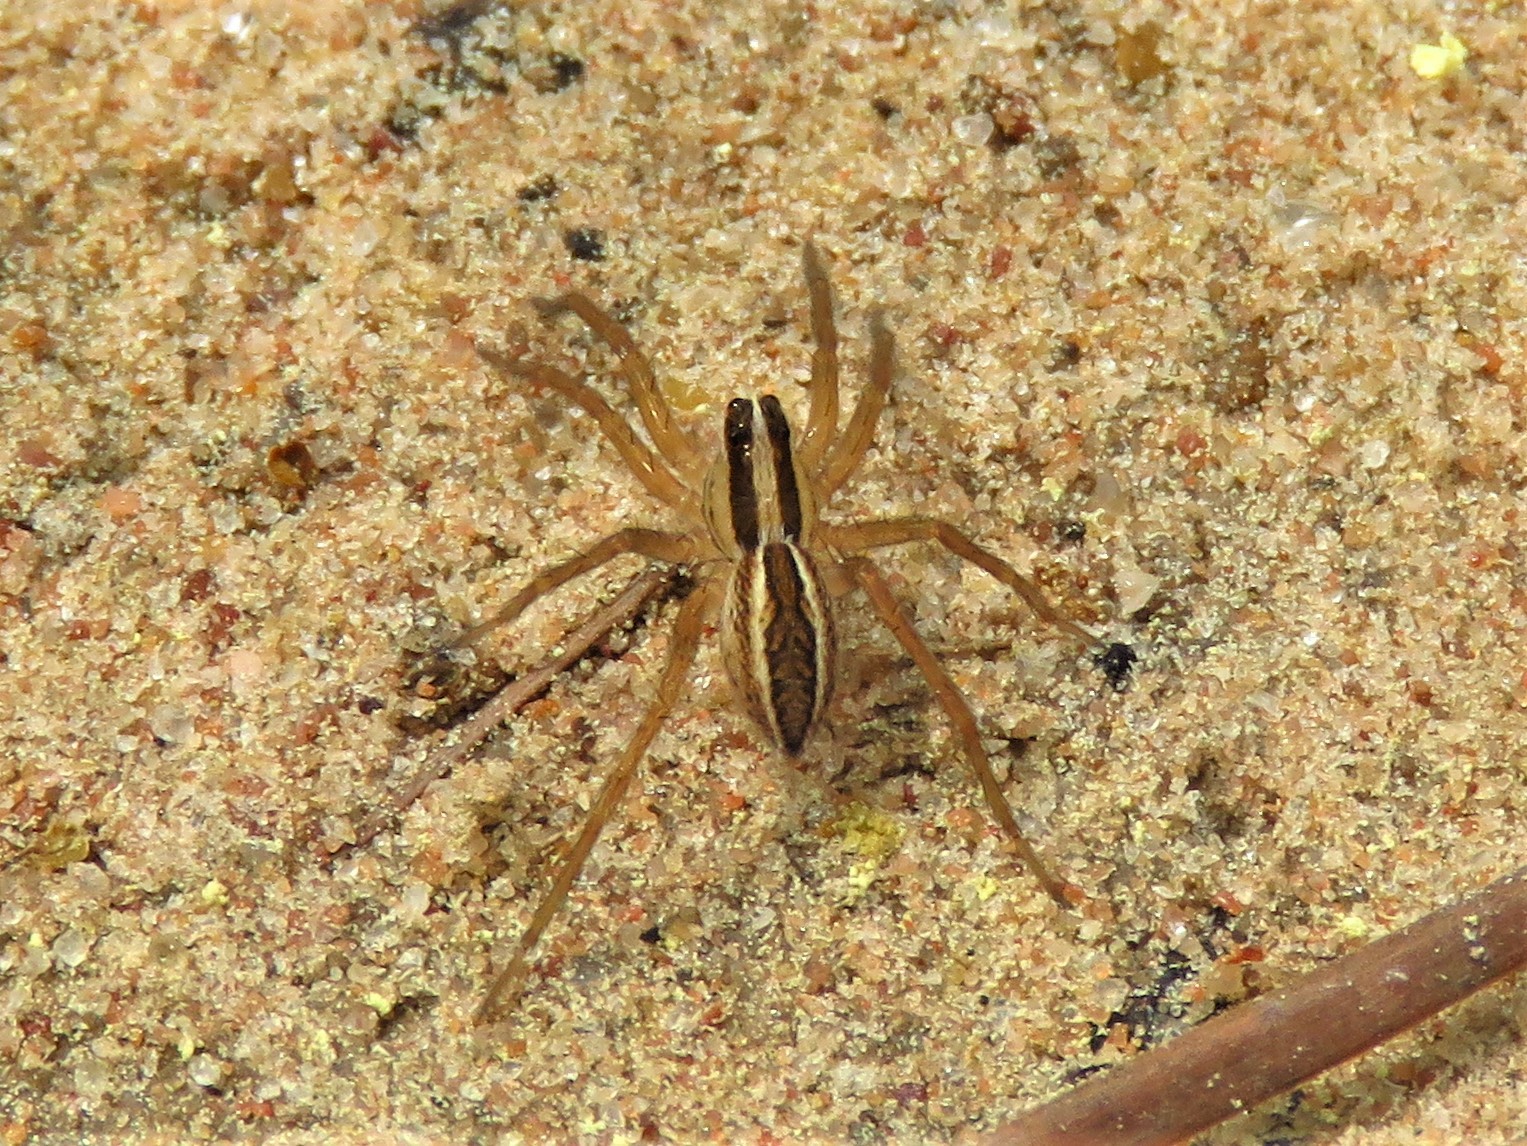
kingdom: Animalia
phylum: Arthropoda
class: Arachnida
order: Araneae
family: Lycosidae
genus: Rabidosa
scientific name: Rabidosa rabida
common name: Rabid wolf spider
